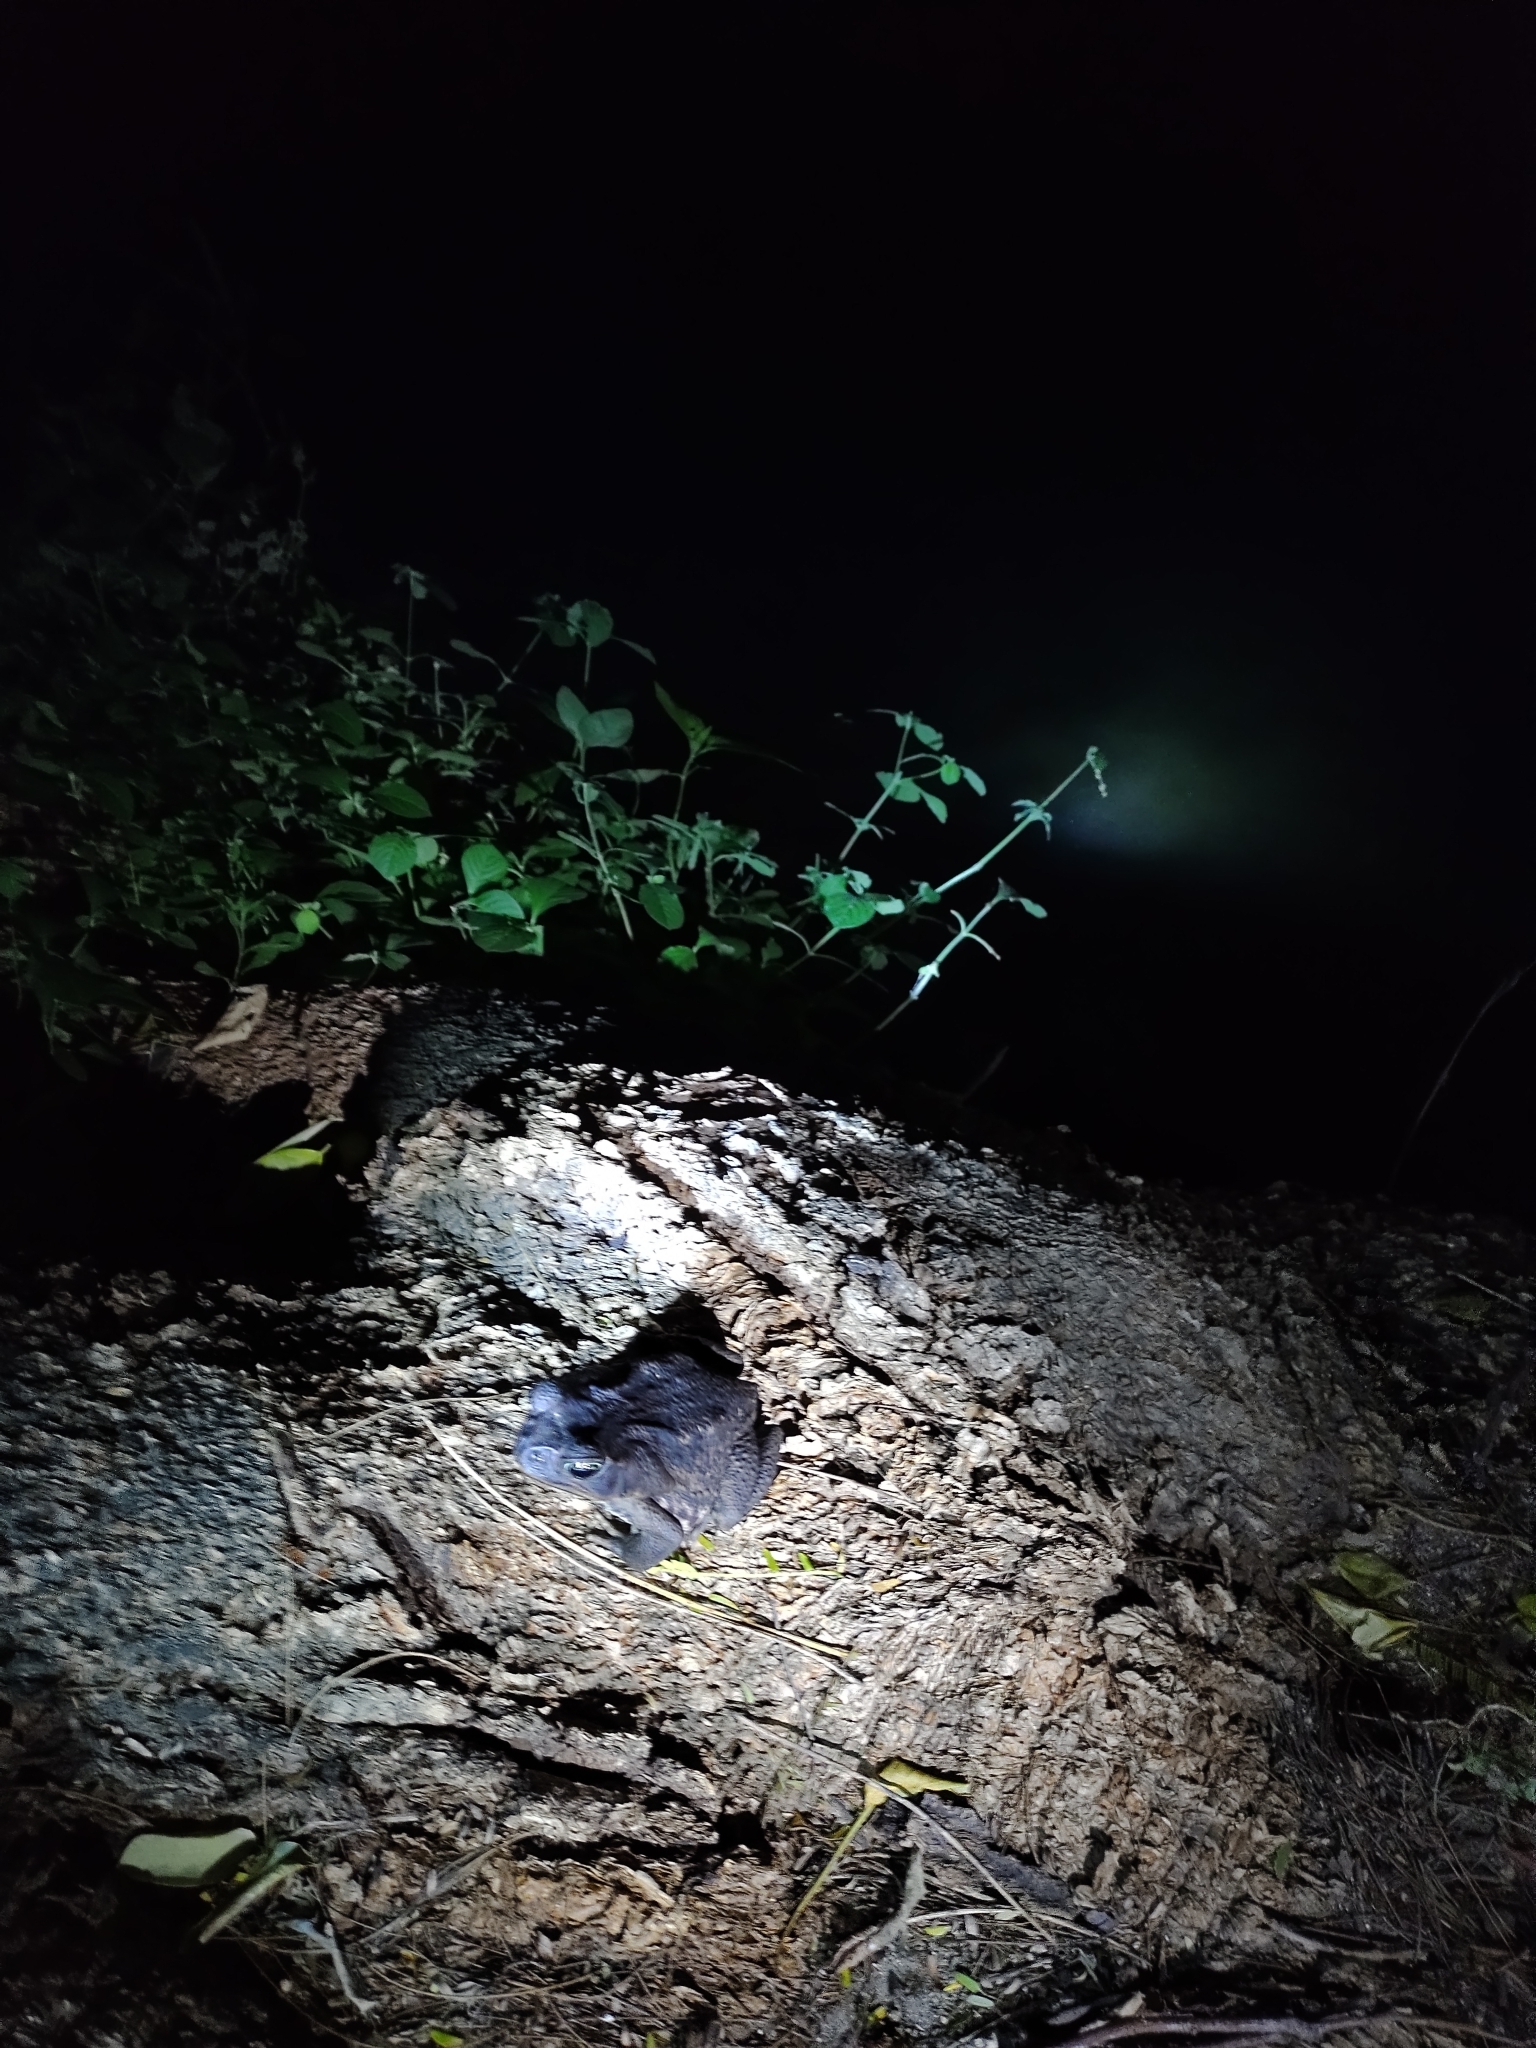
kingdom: Animalia
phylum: Chordata
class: Amphibia
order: Anura
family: Bufonidae
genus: Rhinella
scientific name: Rhinella horribilis
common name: Mesoamerican cane toad
